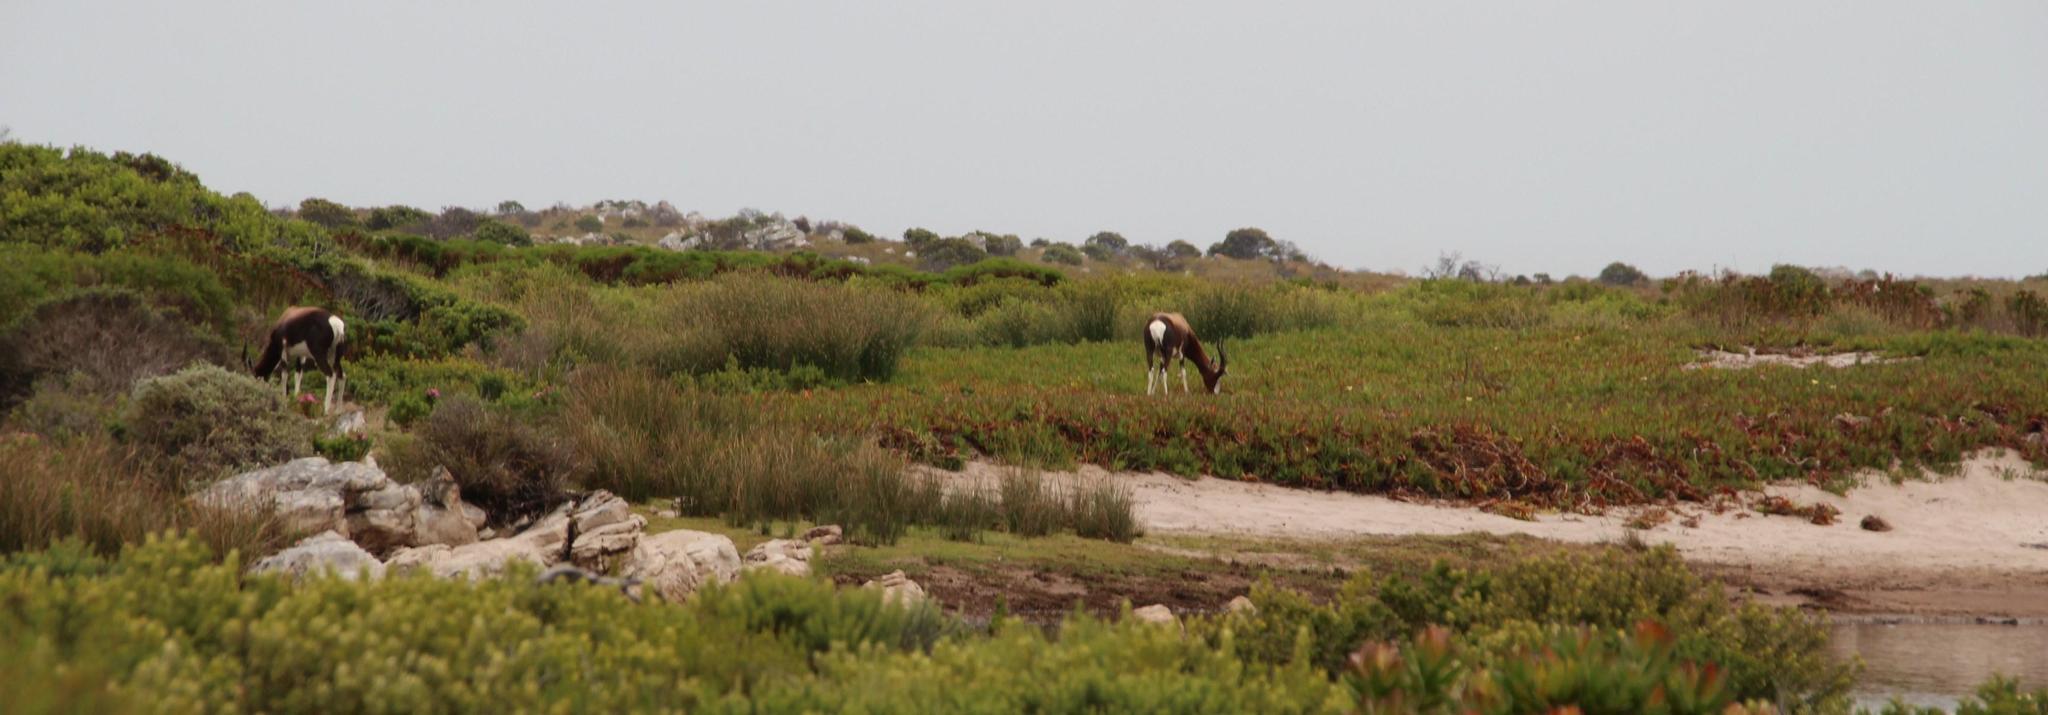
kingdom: Animalia
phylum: Chordata
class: Mammalia
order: Artiodactyla
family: Bovidae
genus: Damaliscus
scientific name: Damaliscus pygargus
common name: Bontebok
